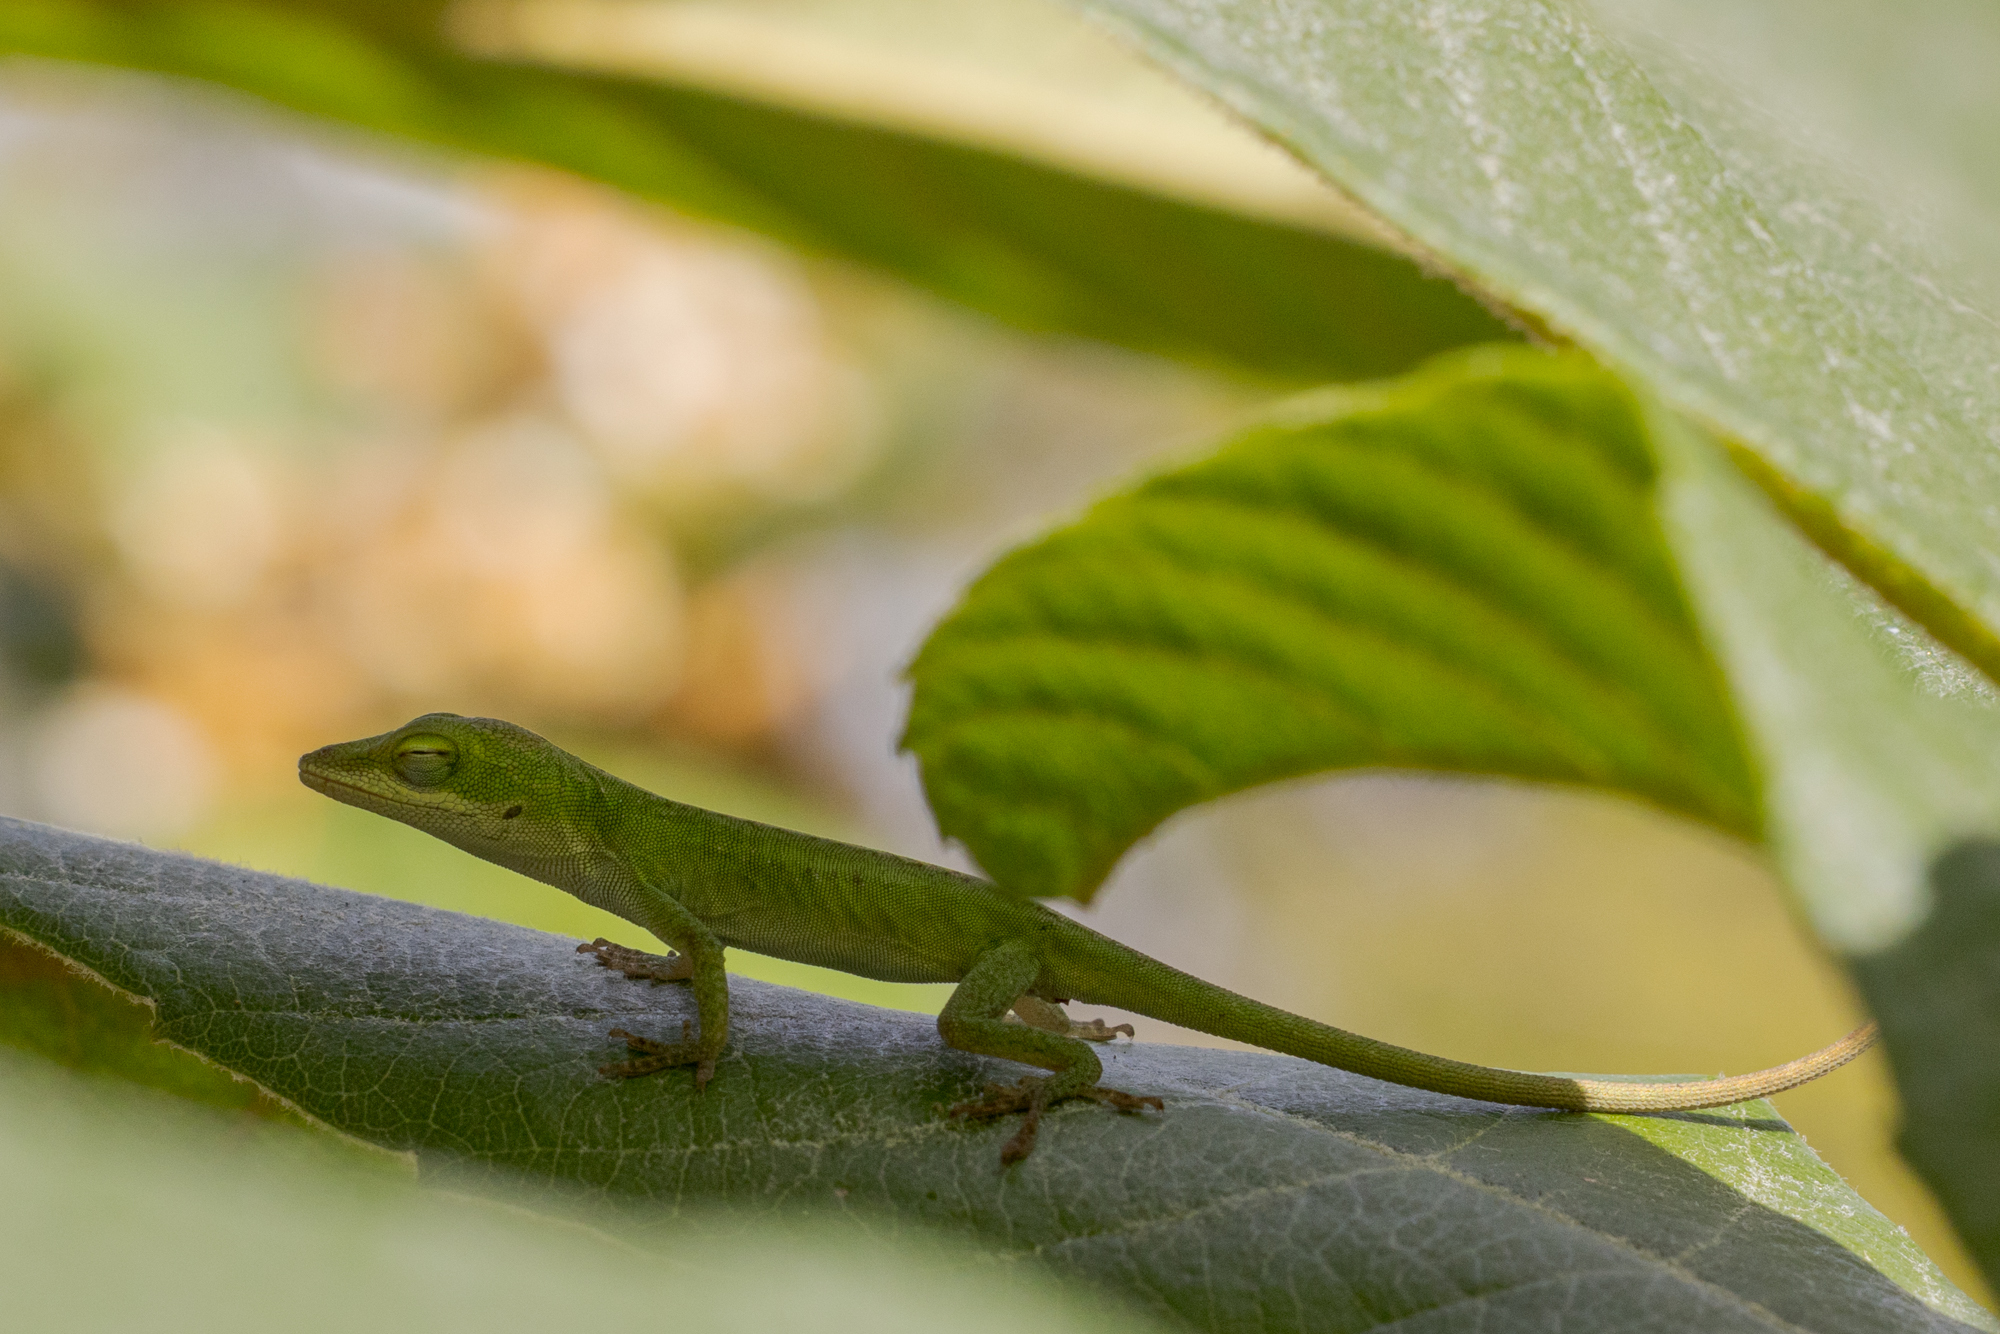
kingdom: Animalia
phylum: Chordata
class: Squamata
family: Dactyloidae
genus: Anolis
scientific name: Anolis carolinensis
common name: Green anole
